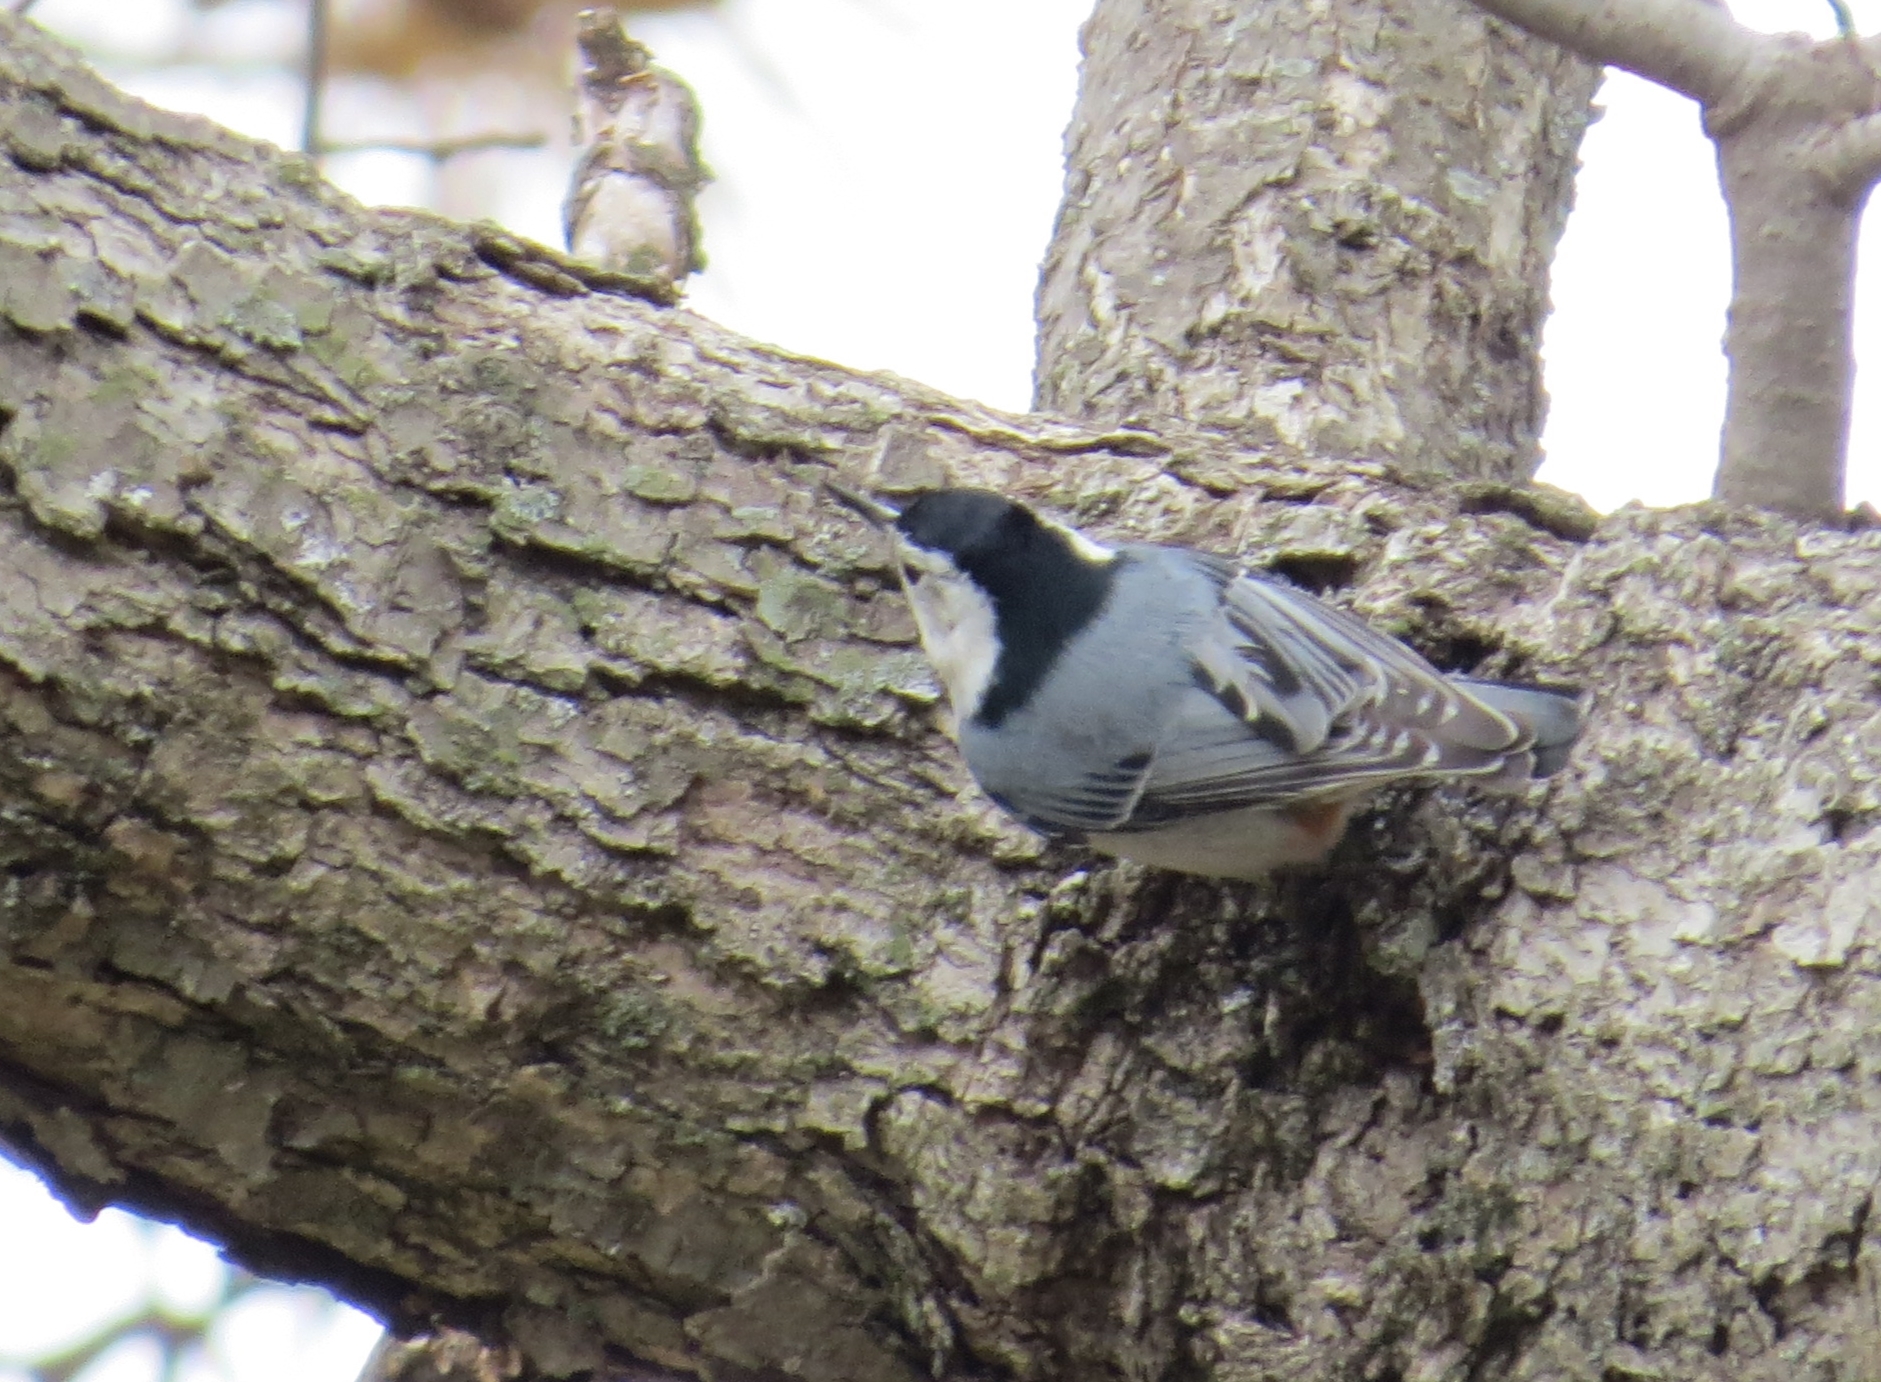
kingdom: Animalia
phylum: Chordata
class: Aves
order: Passeriformes
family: Sittidae
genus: Sitta
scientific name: Sitta carolinensis
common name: White-breasted nuthatch
